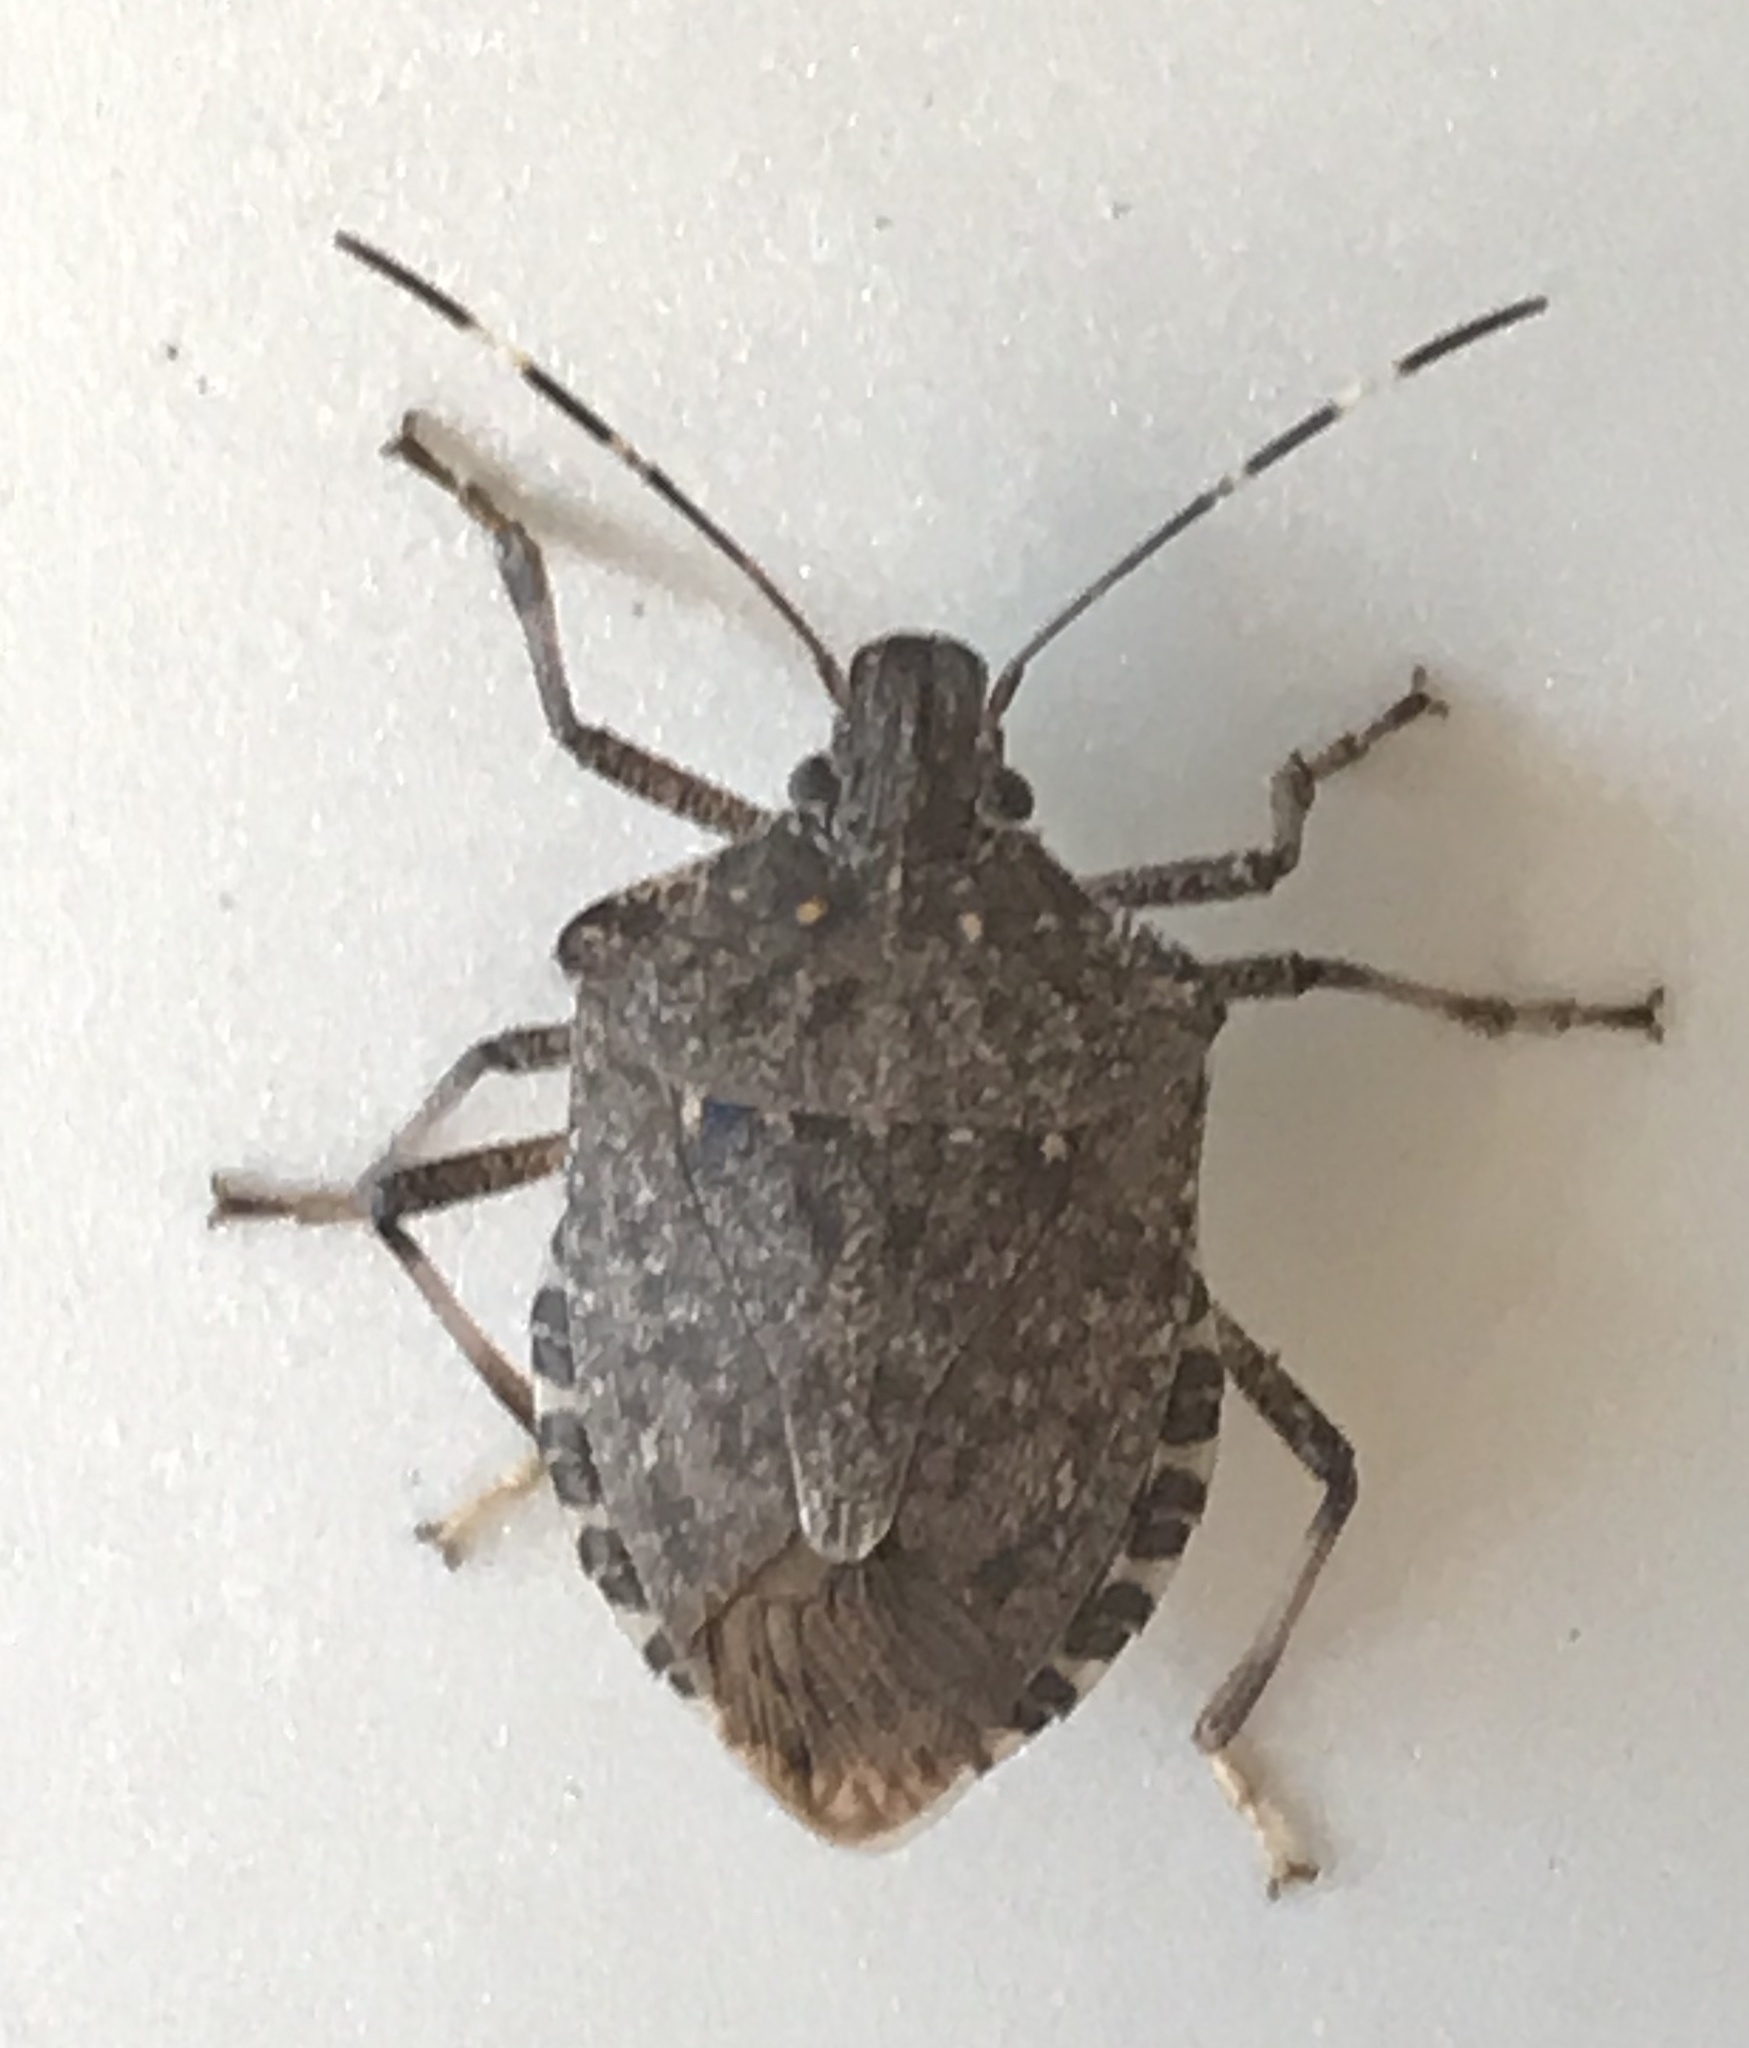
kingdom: Animalia
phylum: Arthropoda
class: Insecta
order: Hemiptera
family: Pentatomidae
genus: Halyomorpha
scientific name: Halyomorpha halys
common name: Brown marmorated stink bug
